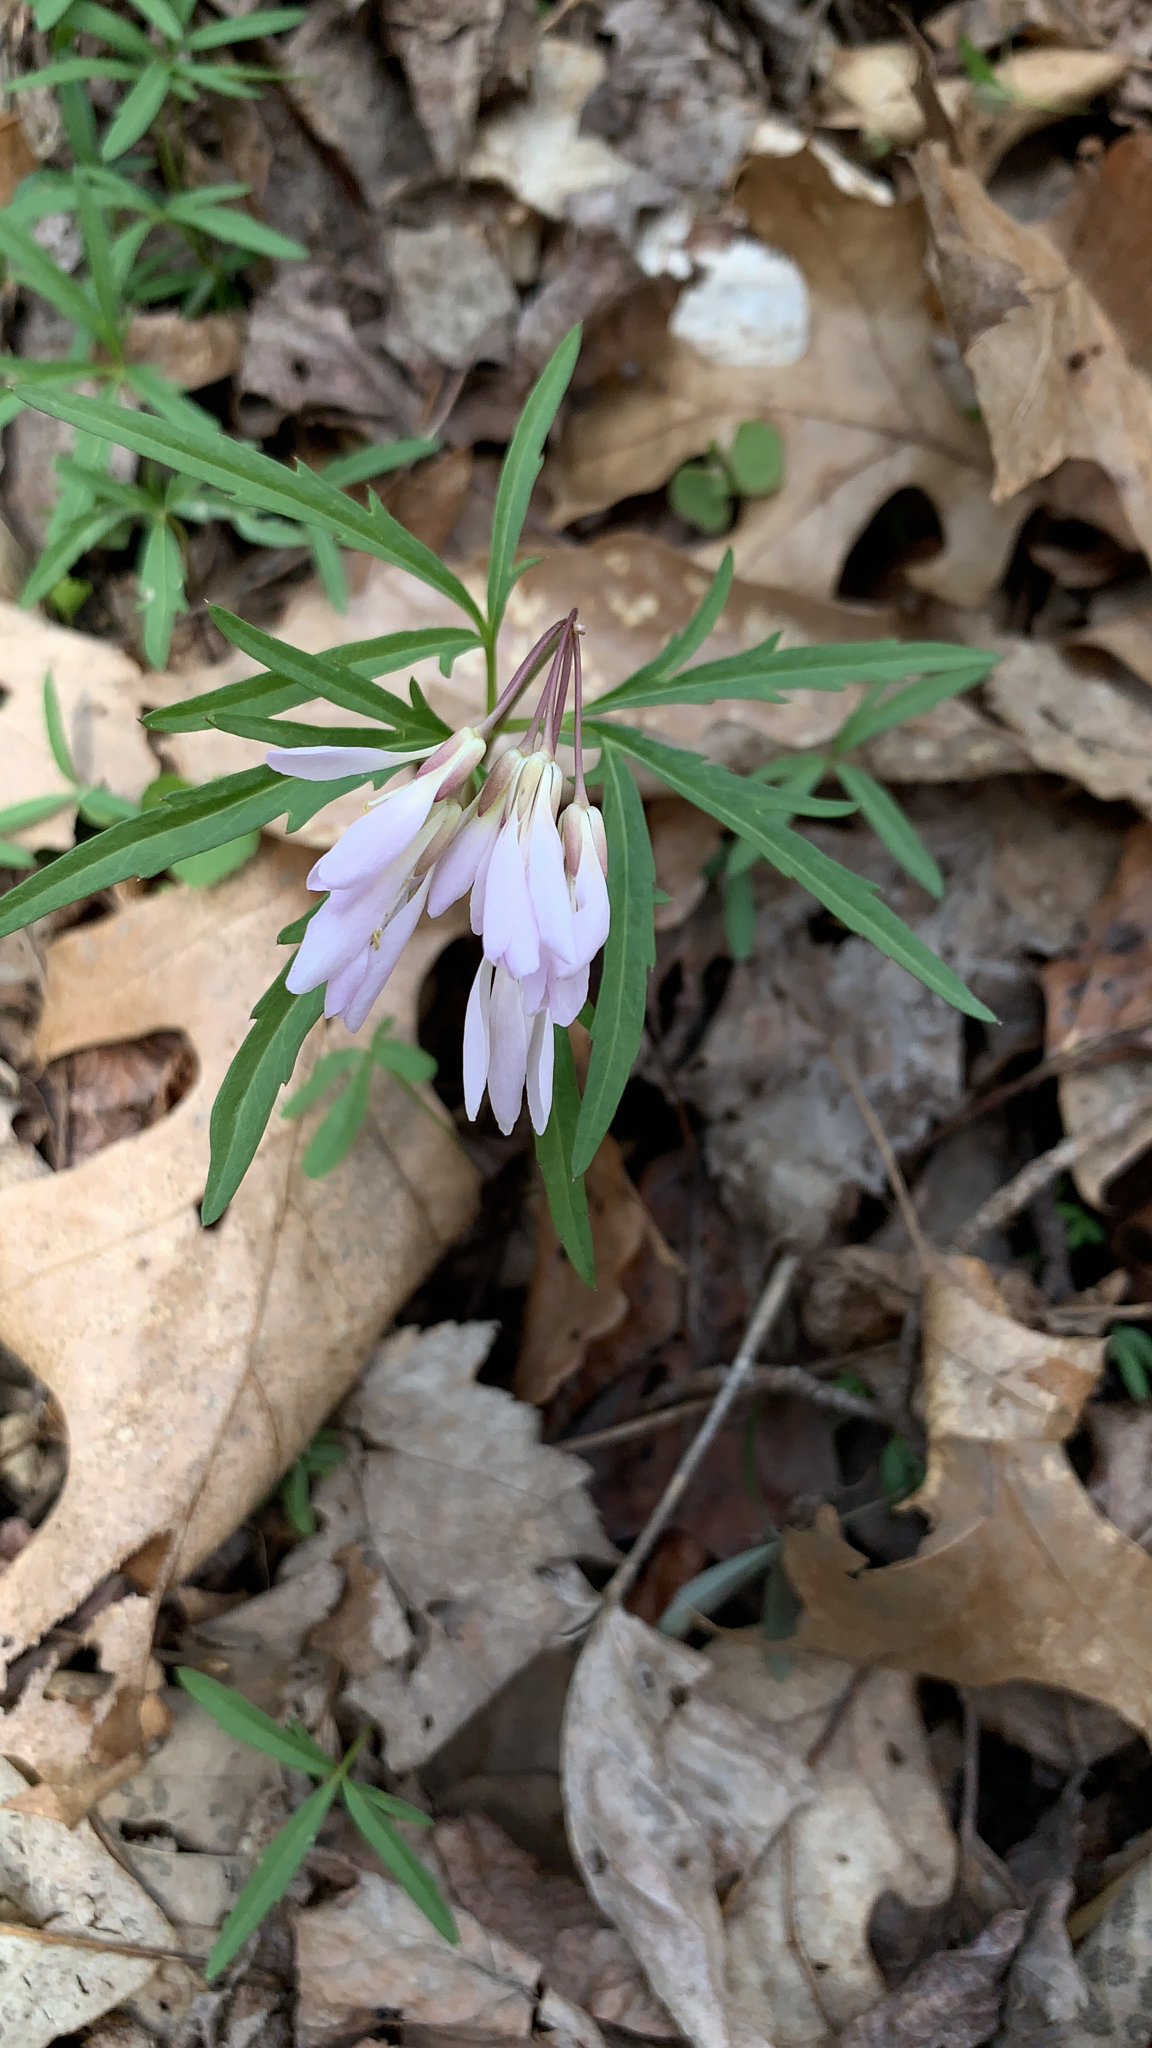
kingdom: Plantae
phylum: Tracheophyta
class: Magnoliopsida
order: Brassicales
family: Brassicaceae
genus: Cardamine
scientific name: Cardamine concatenata
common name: Cut-leaf toothcup
